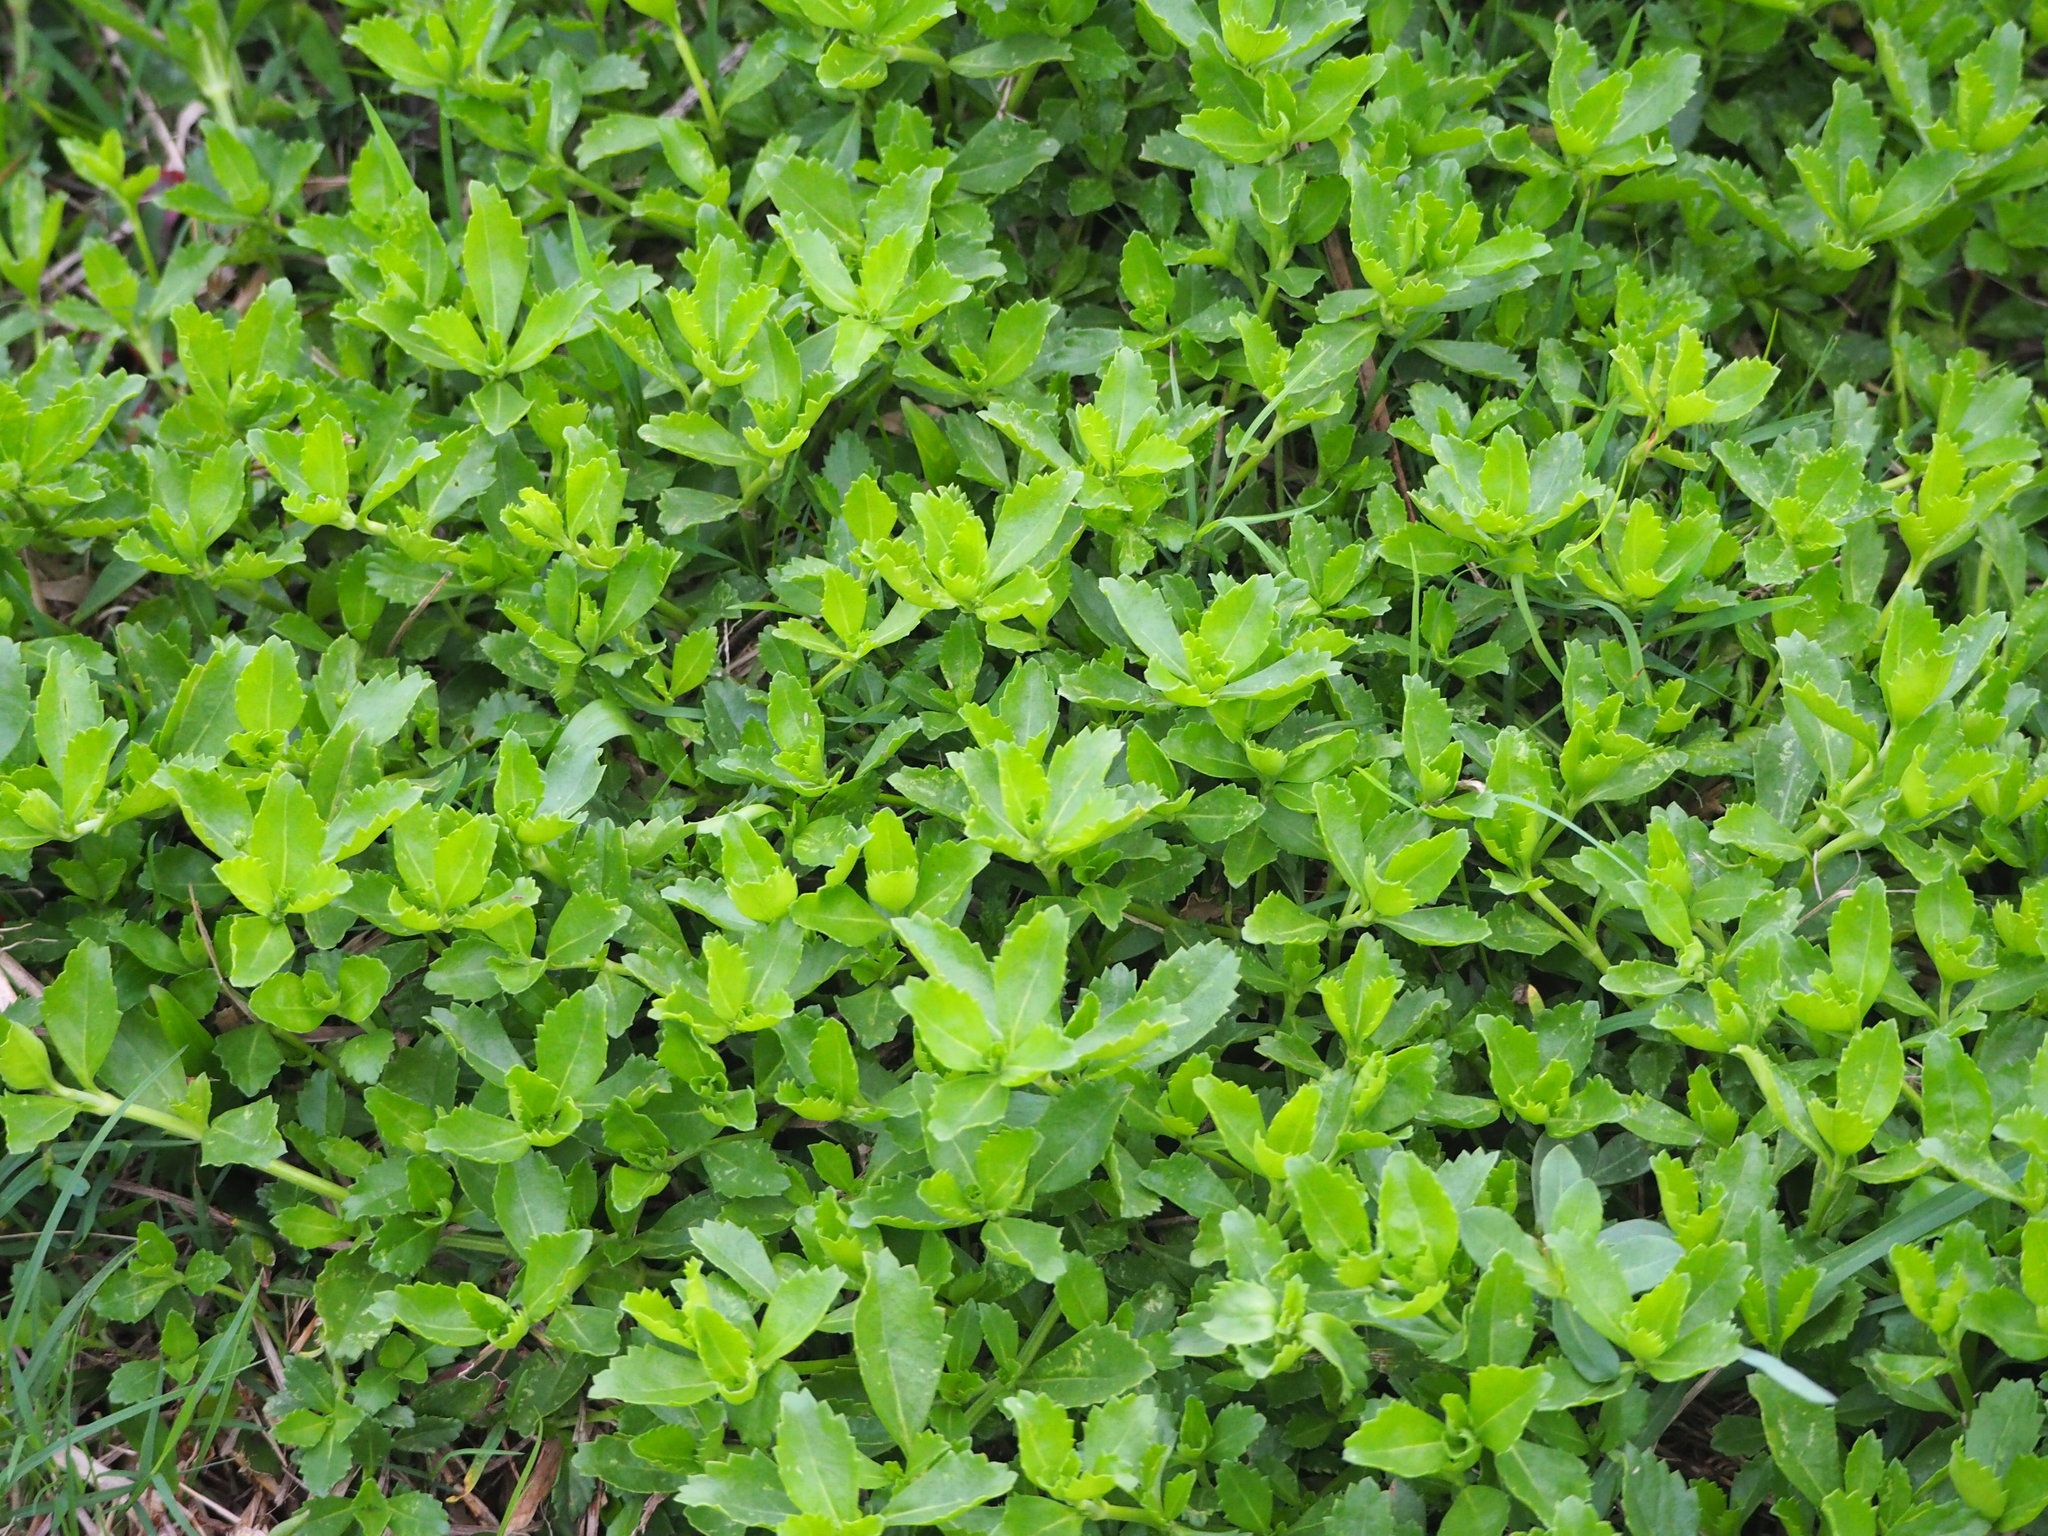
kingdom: Plantae
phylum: Tracheophyta
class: Magnoliopsida
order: Lamiales
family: Verbenaceae
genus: Phyla
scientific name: Phyla nodiflora
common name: Frogfruit
